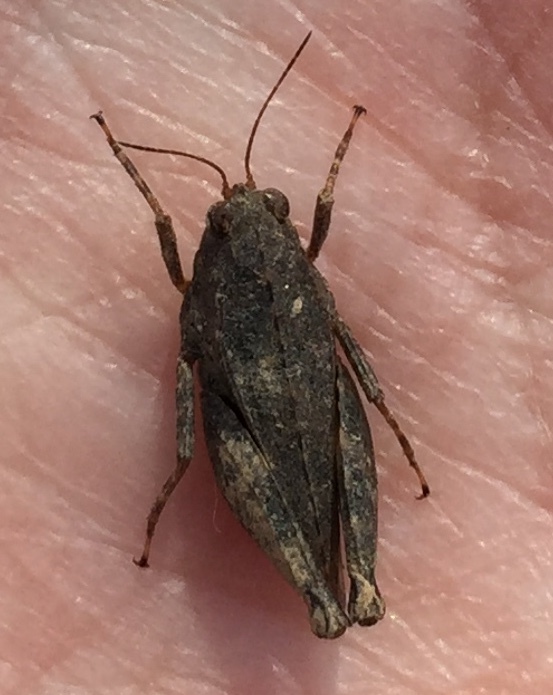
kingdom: Animalia
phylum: Arthropoda
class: Insecta
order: Orthoptera
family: Tetrigidae
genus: Tettigidea
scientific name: Tettigidea laterale
